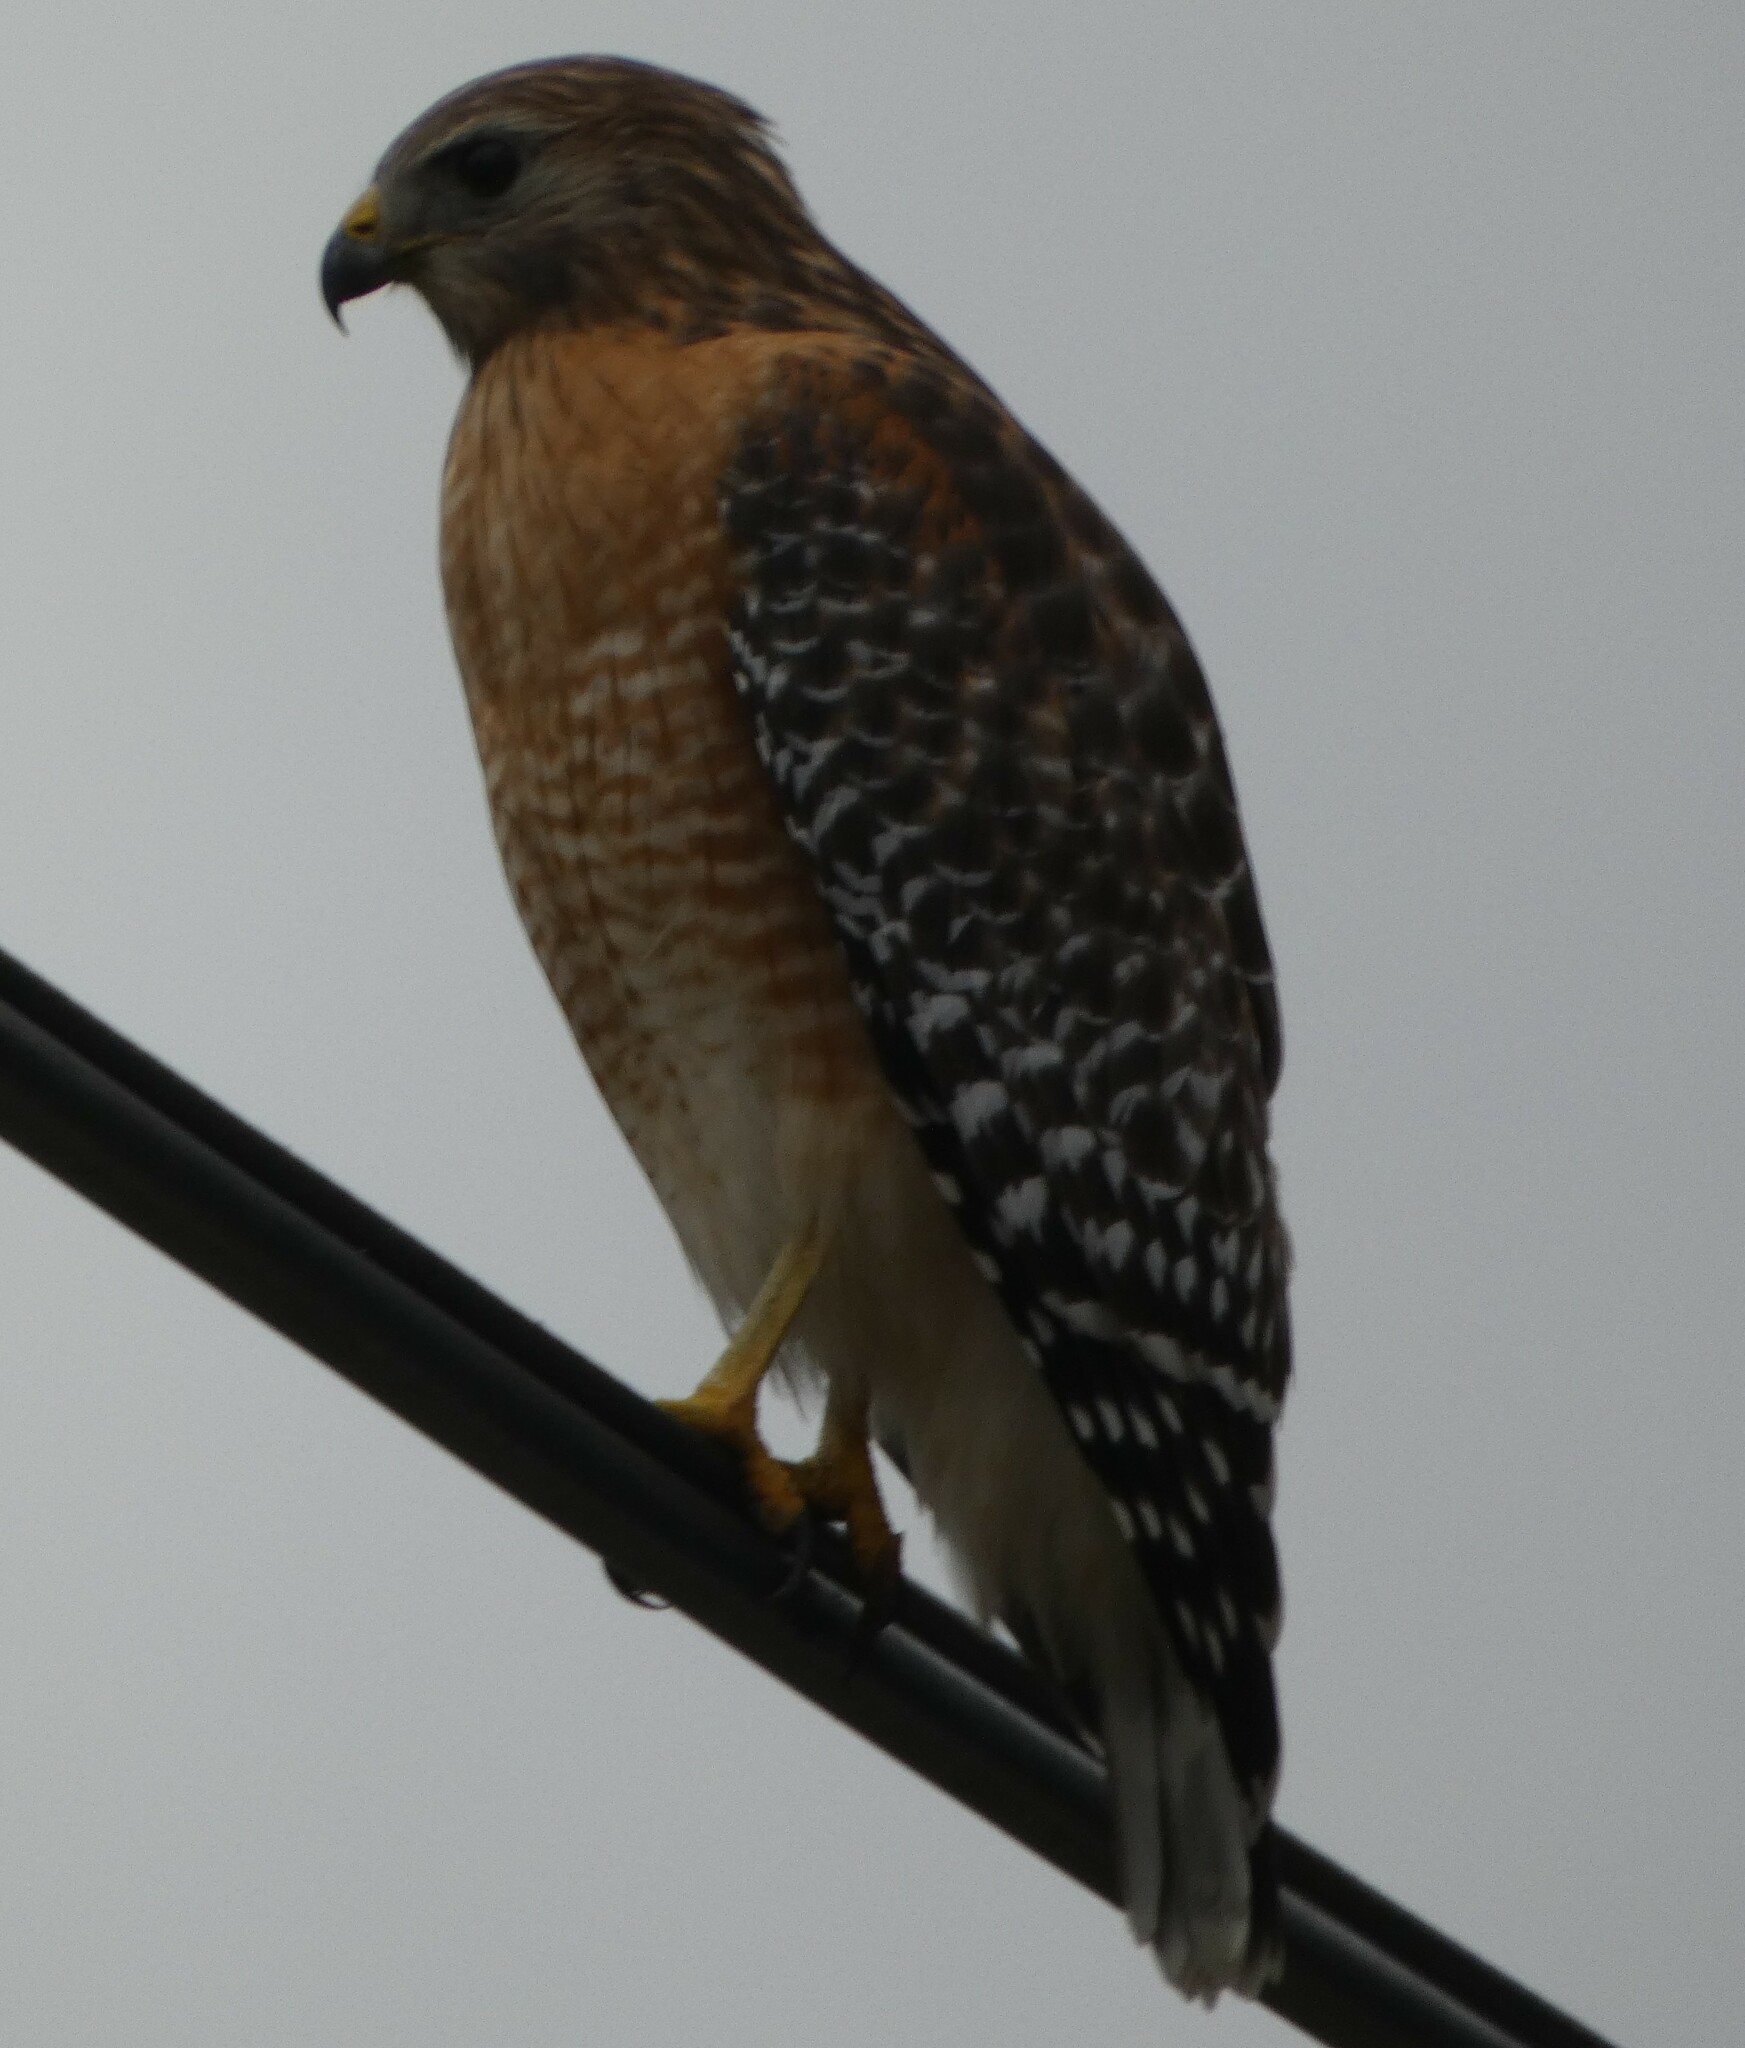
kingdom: Animalia
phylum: Chordata
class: Aves
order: Accipitriformes
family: Accipitridae
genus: Buteo
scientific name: Buteo lineatus
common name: Red-shouldered hawk
